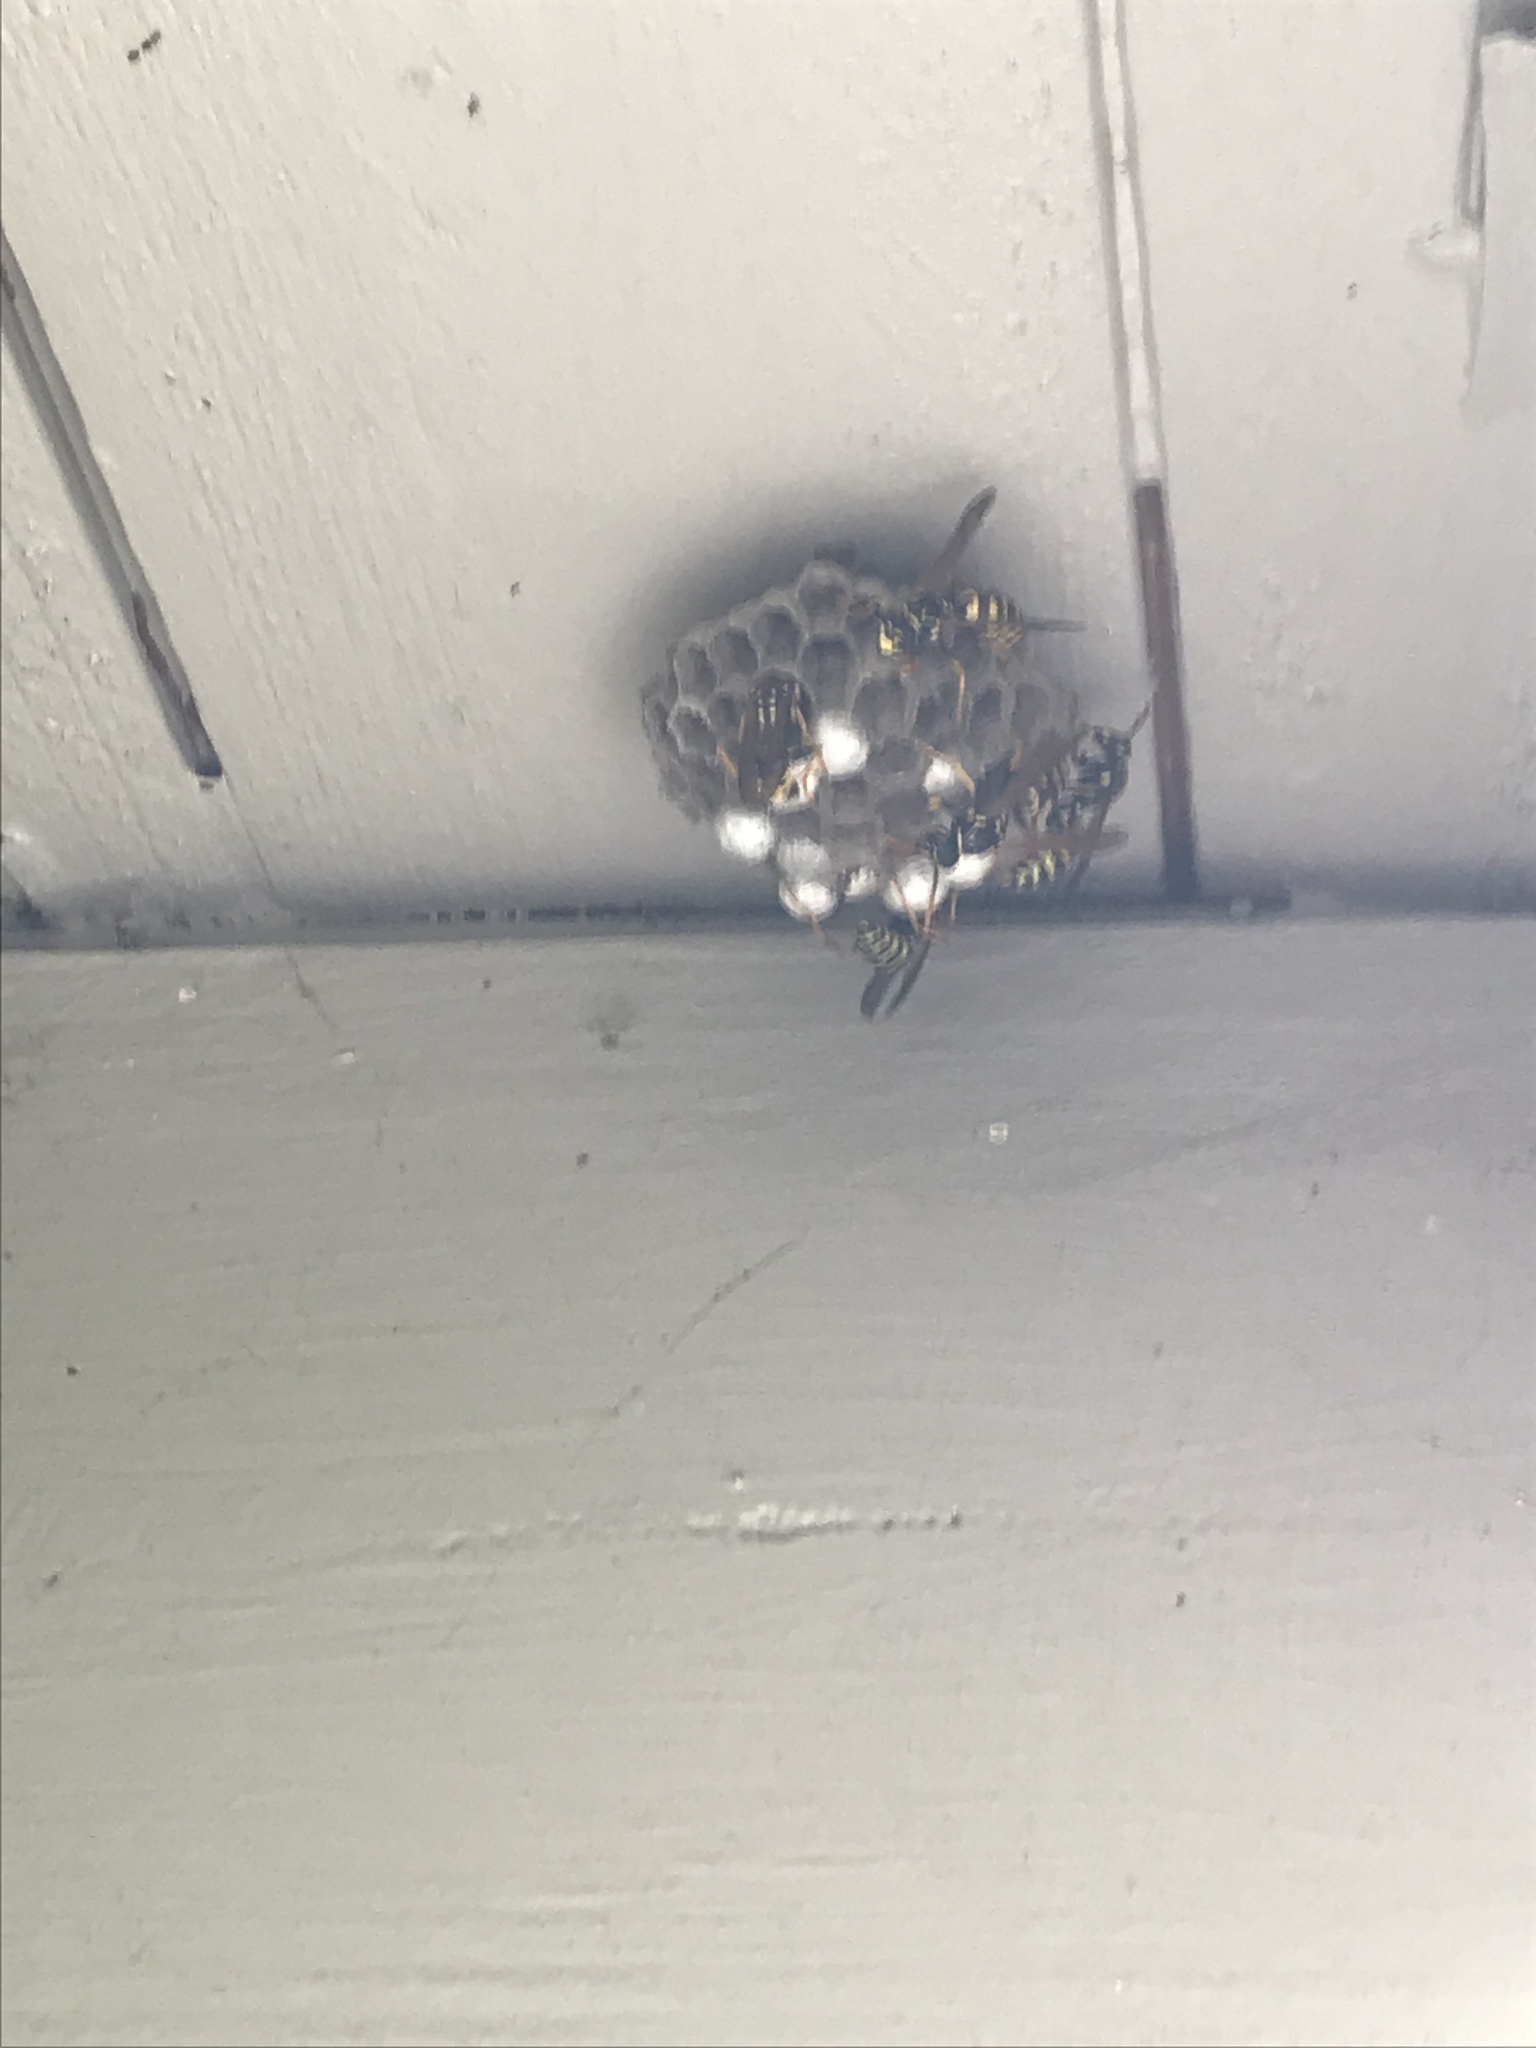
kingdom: Animalia
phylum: Arthropoda
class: Insecta
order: Hymenoptera
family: Eumenidae
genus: Polistes
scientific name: Polistes dominula
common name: Paper wasp
